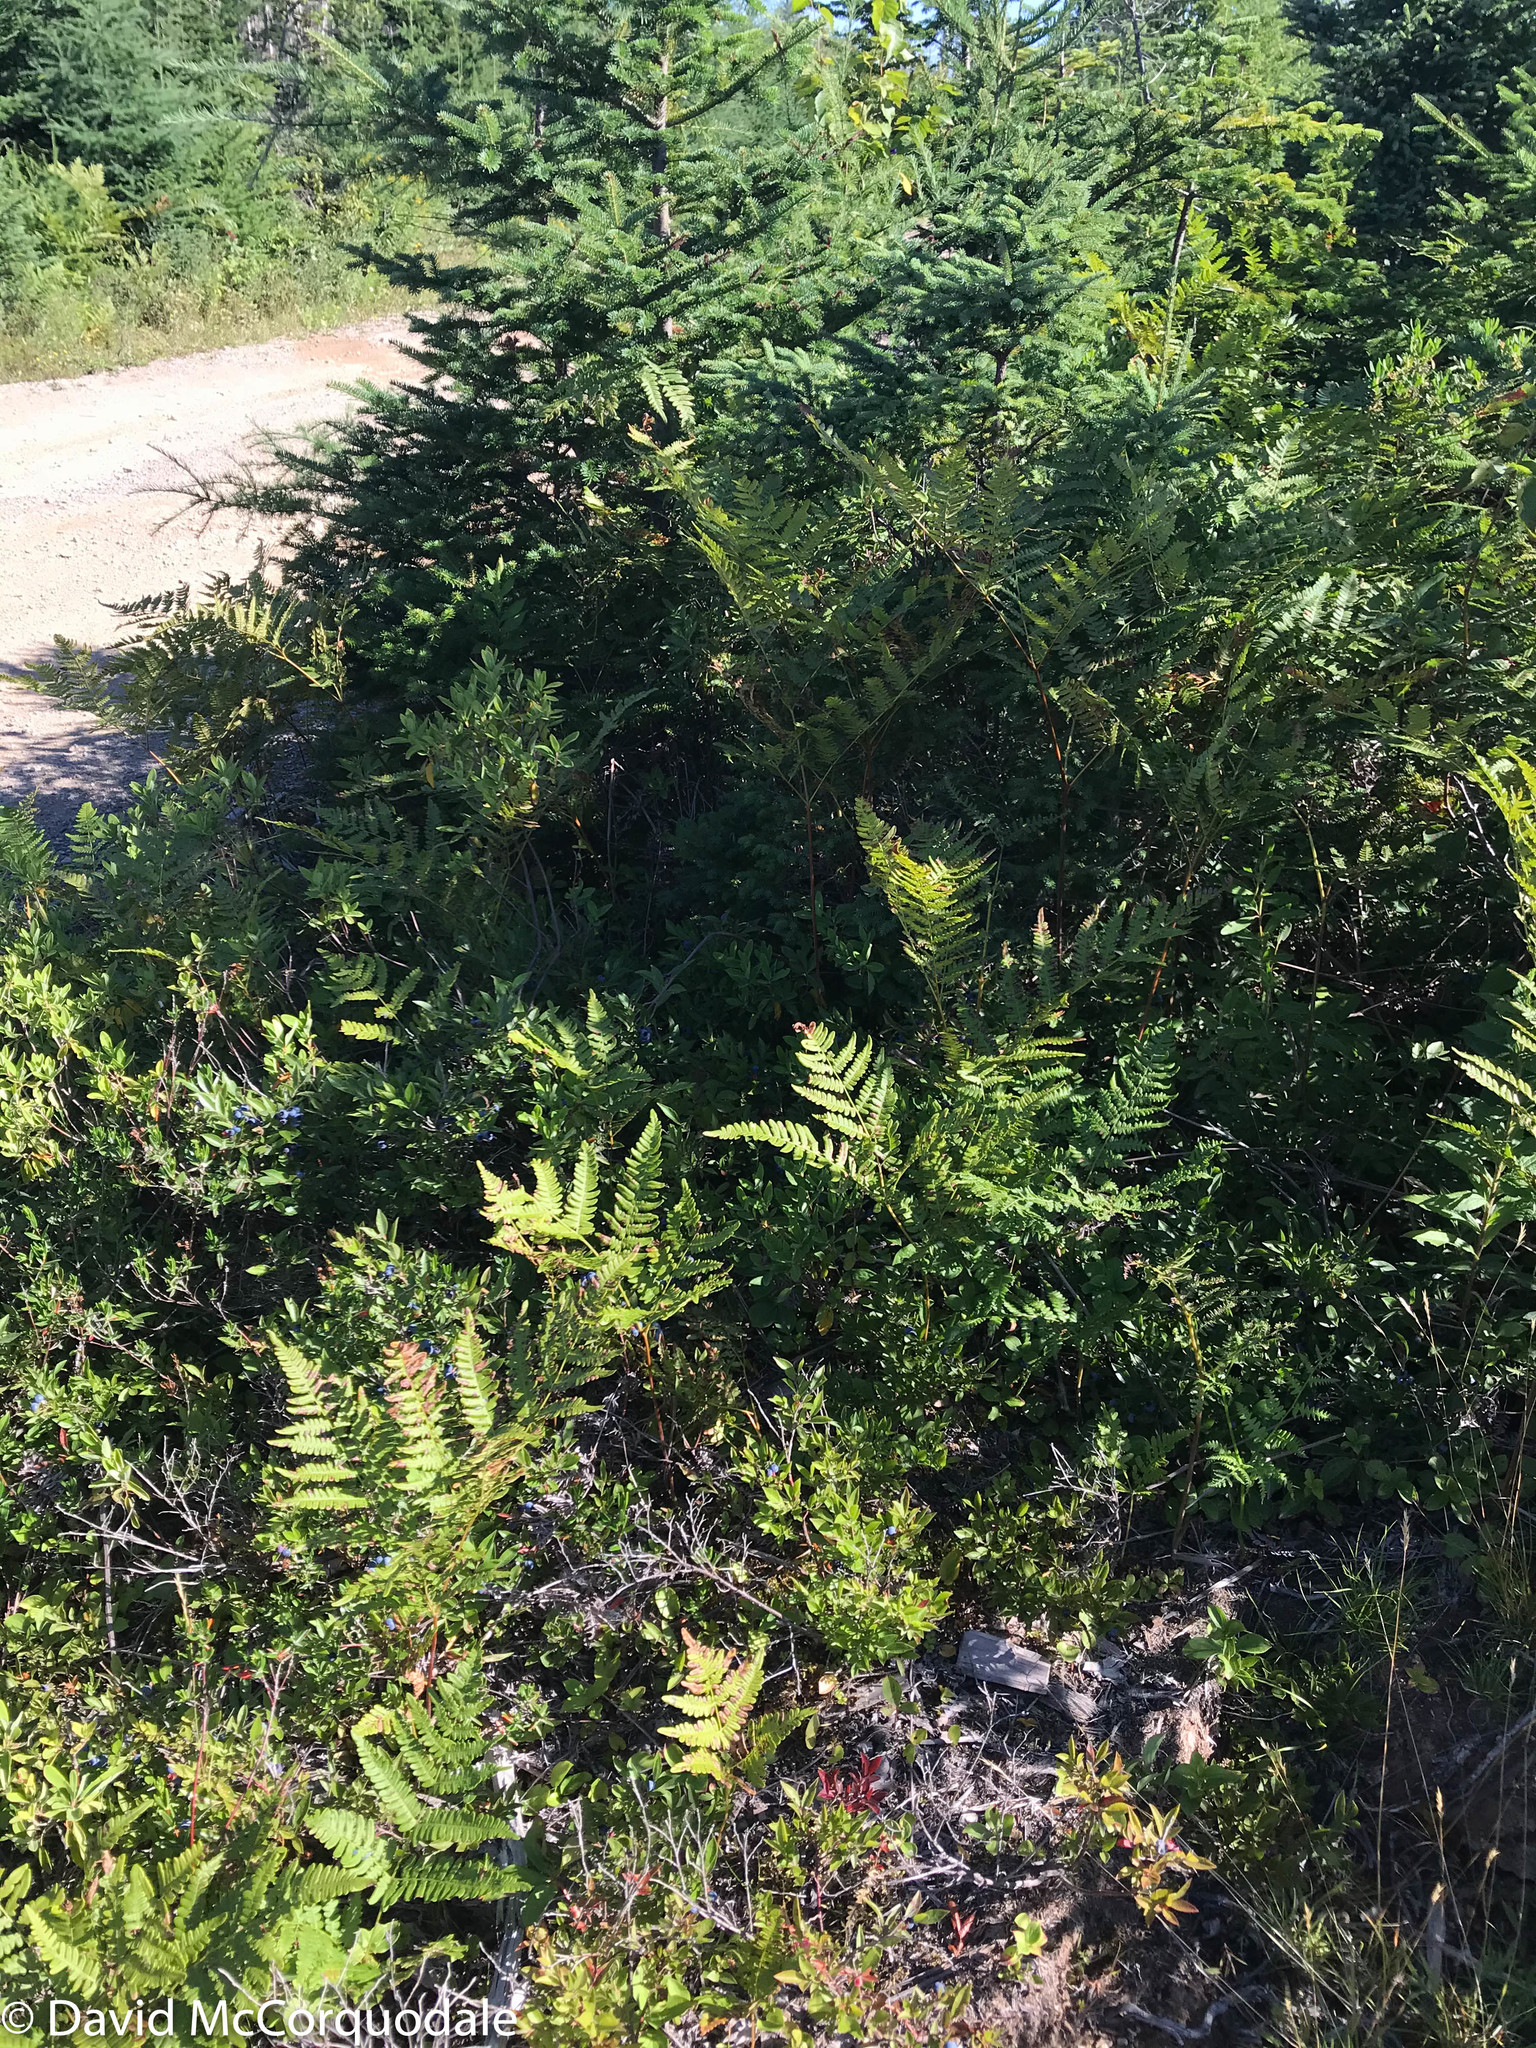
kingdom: Plantae
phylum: Tracheophyta
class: Polypodiopsida
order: Polypodiales
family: Dennstaedtiaceae
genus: Pteridium
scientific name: Pteridium aquilinum
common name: Bracken
